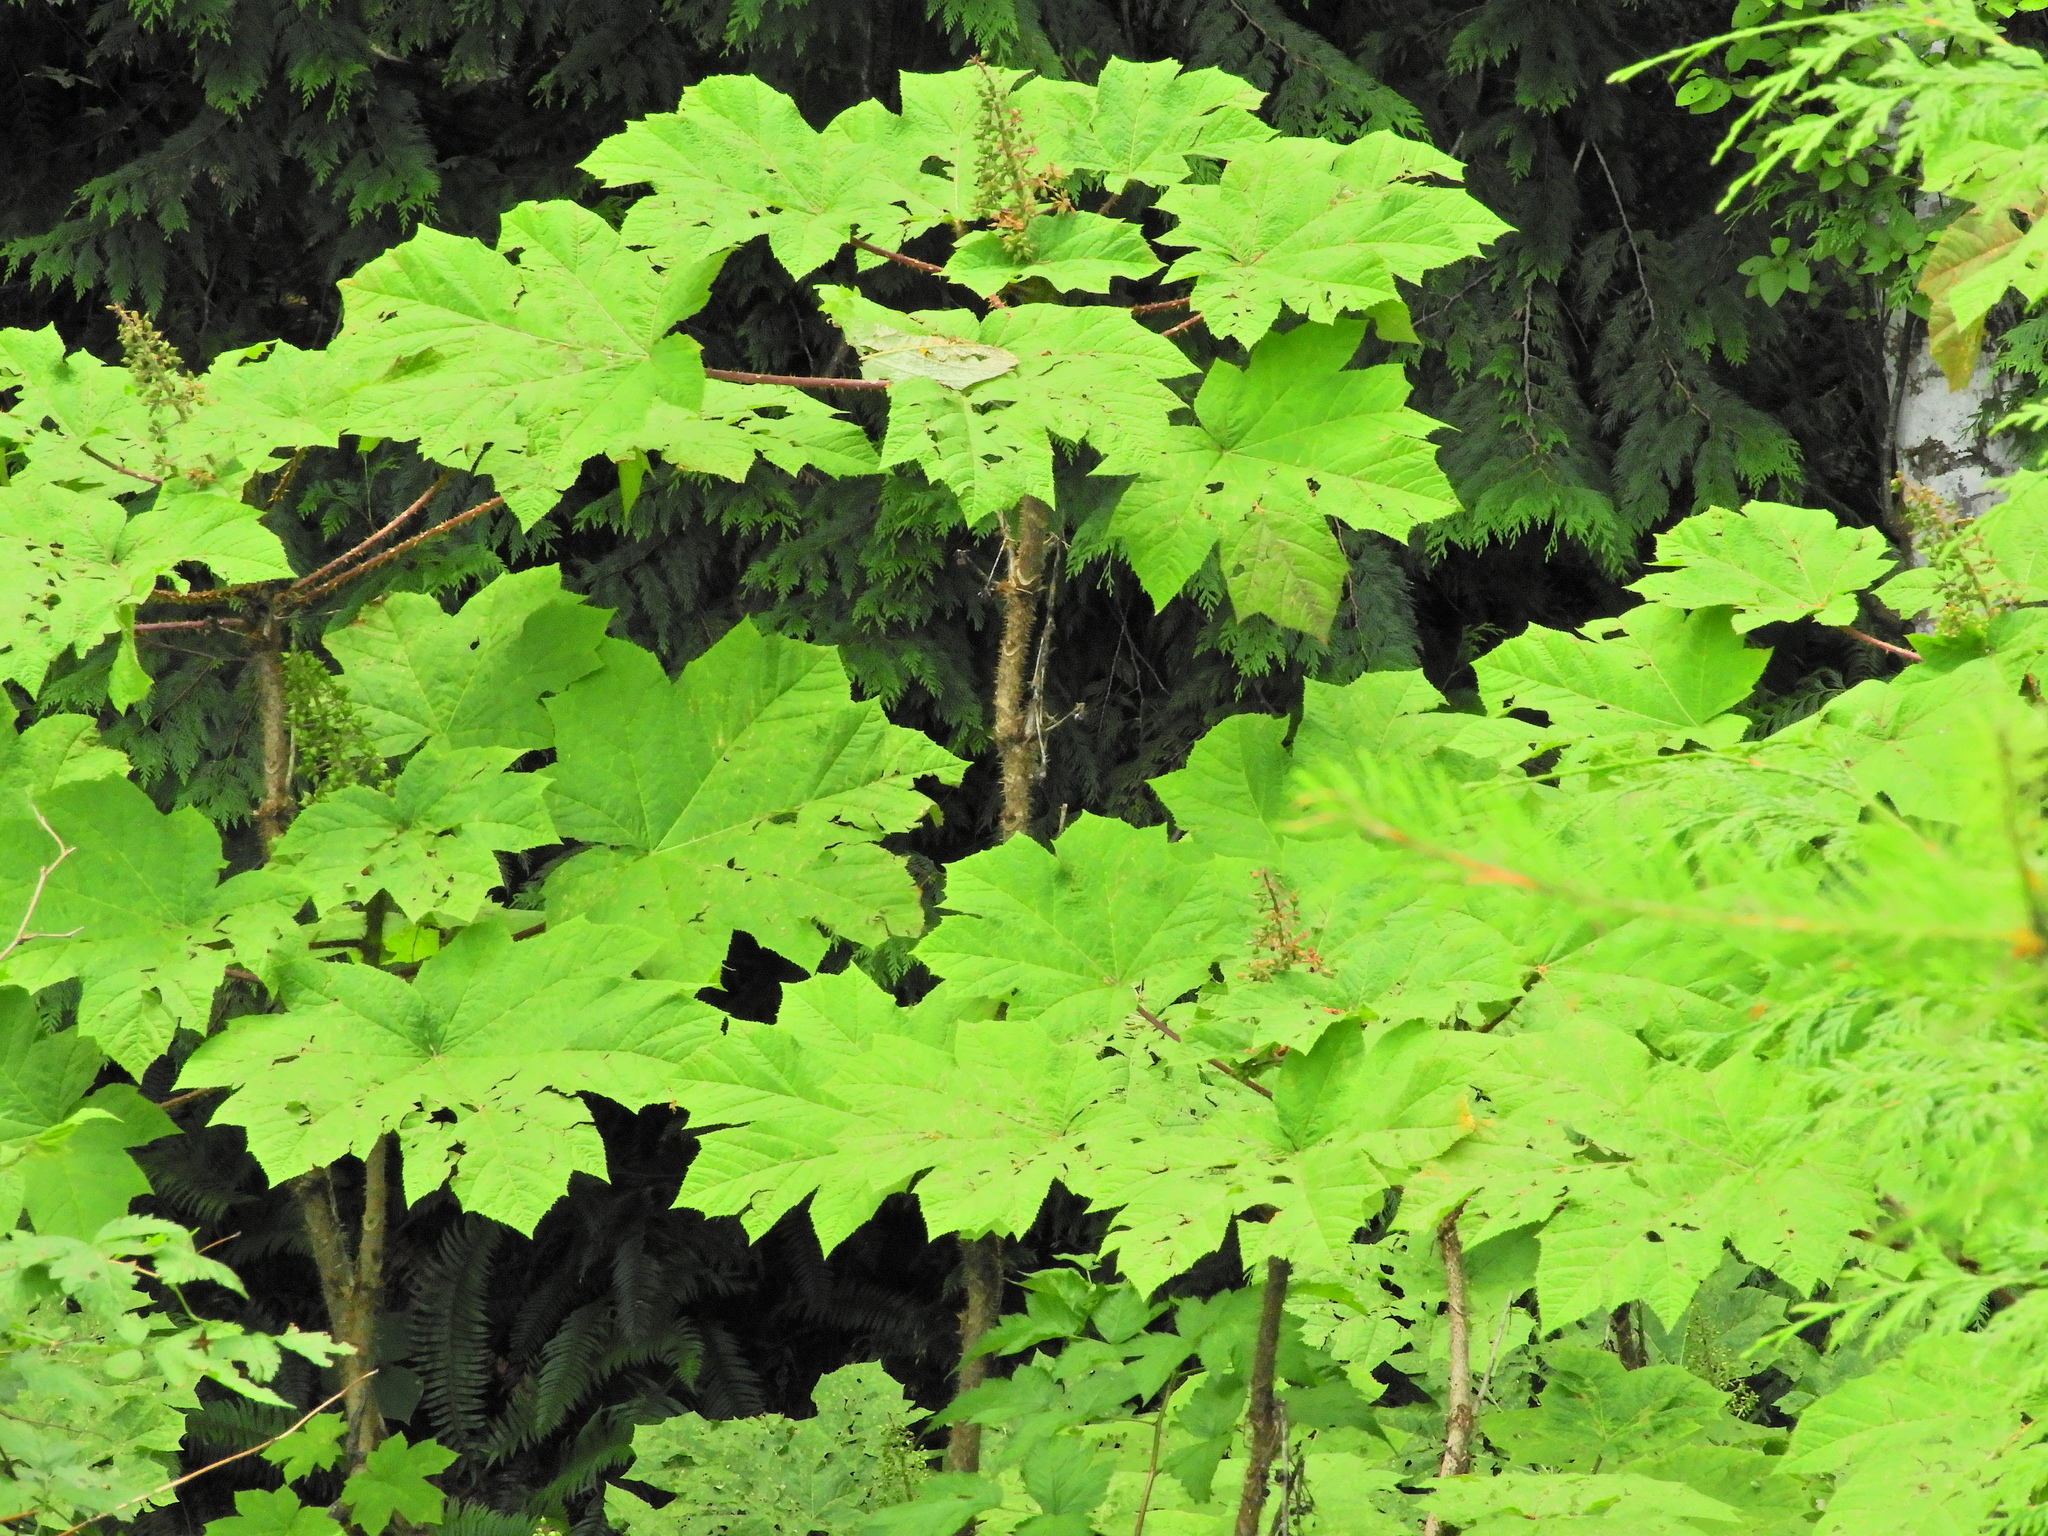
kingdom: Plantae
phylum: Tracheophyta
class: Magnoliopsida
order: Apiales
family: Araliaceae
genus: Oplopanax
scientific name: Oplopanax horridus
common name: Devil's walking-stick
